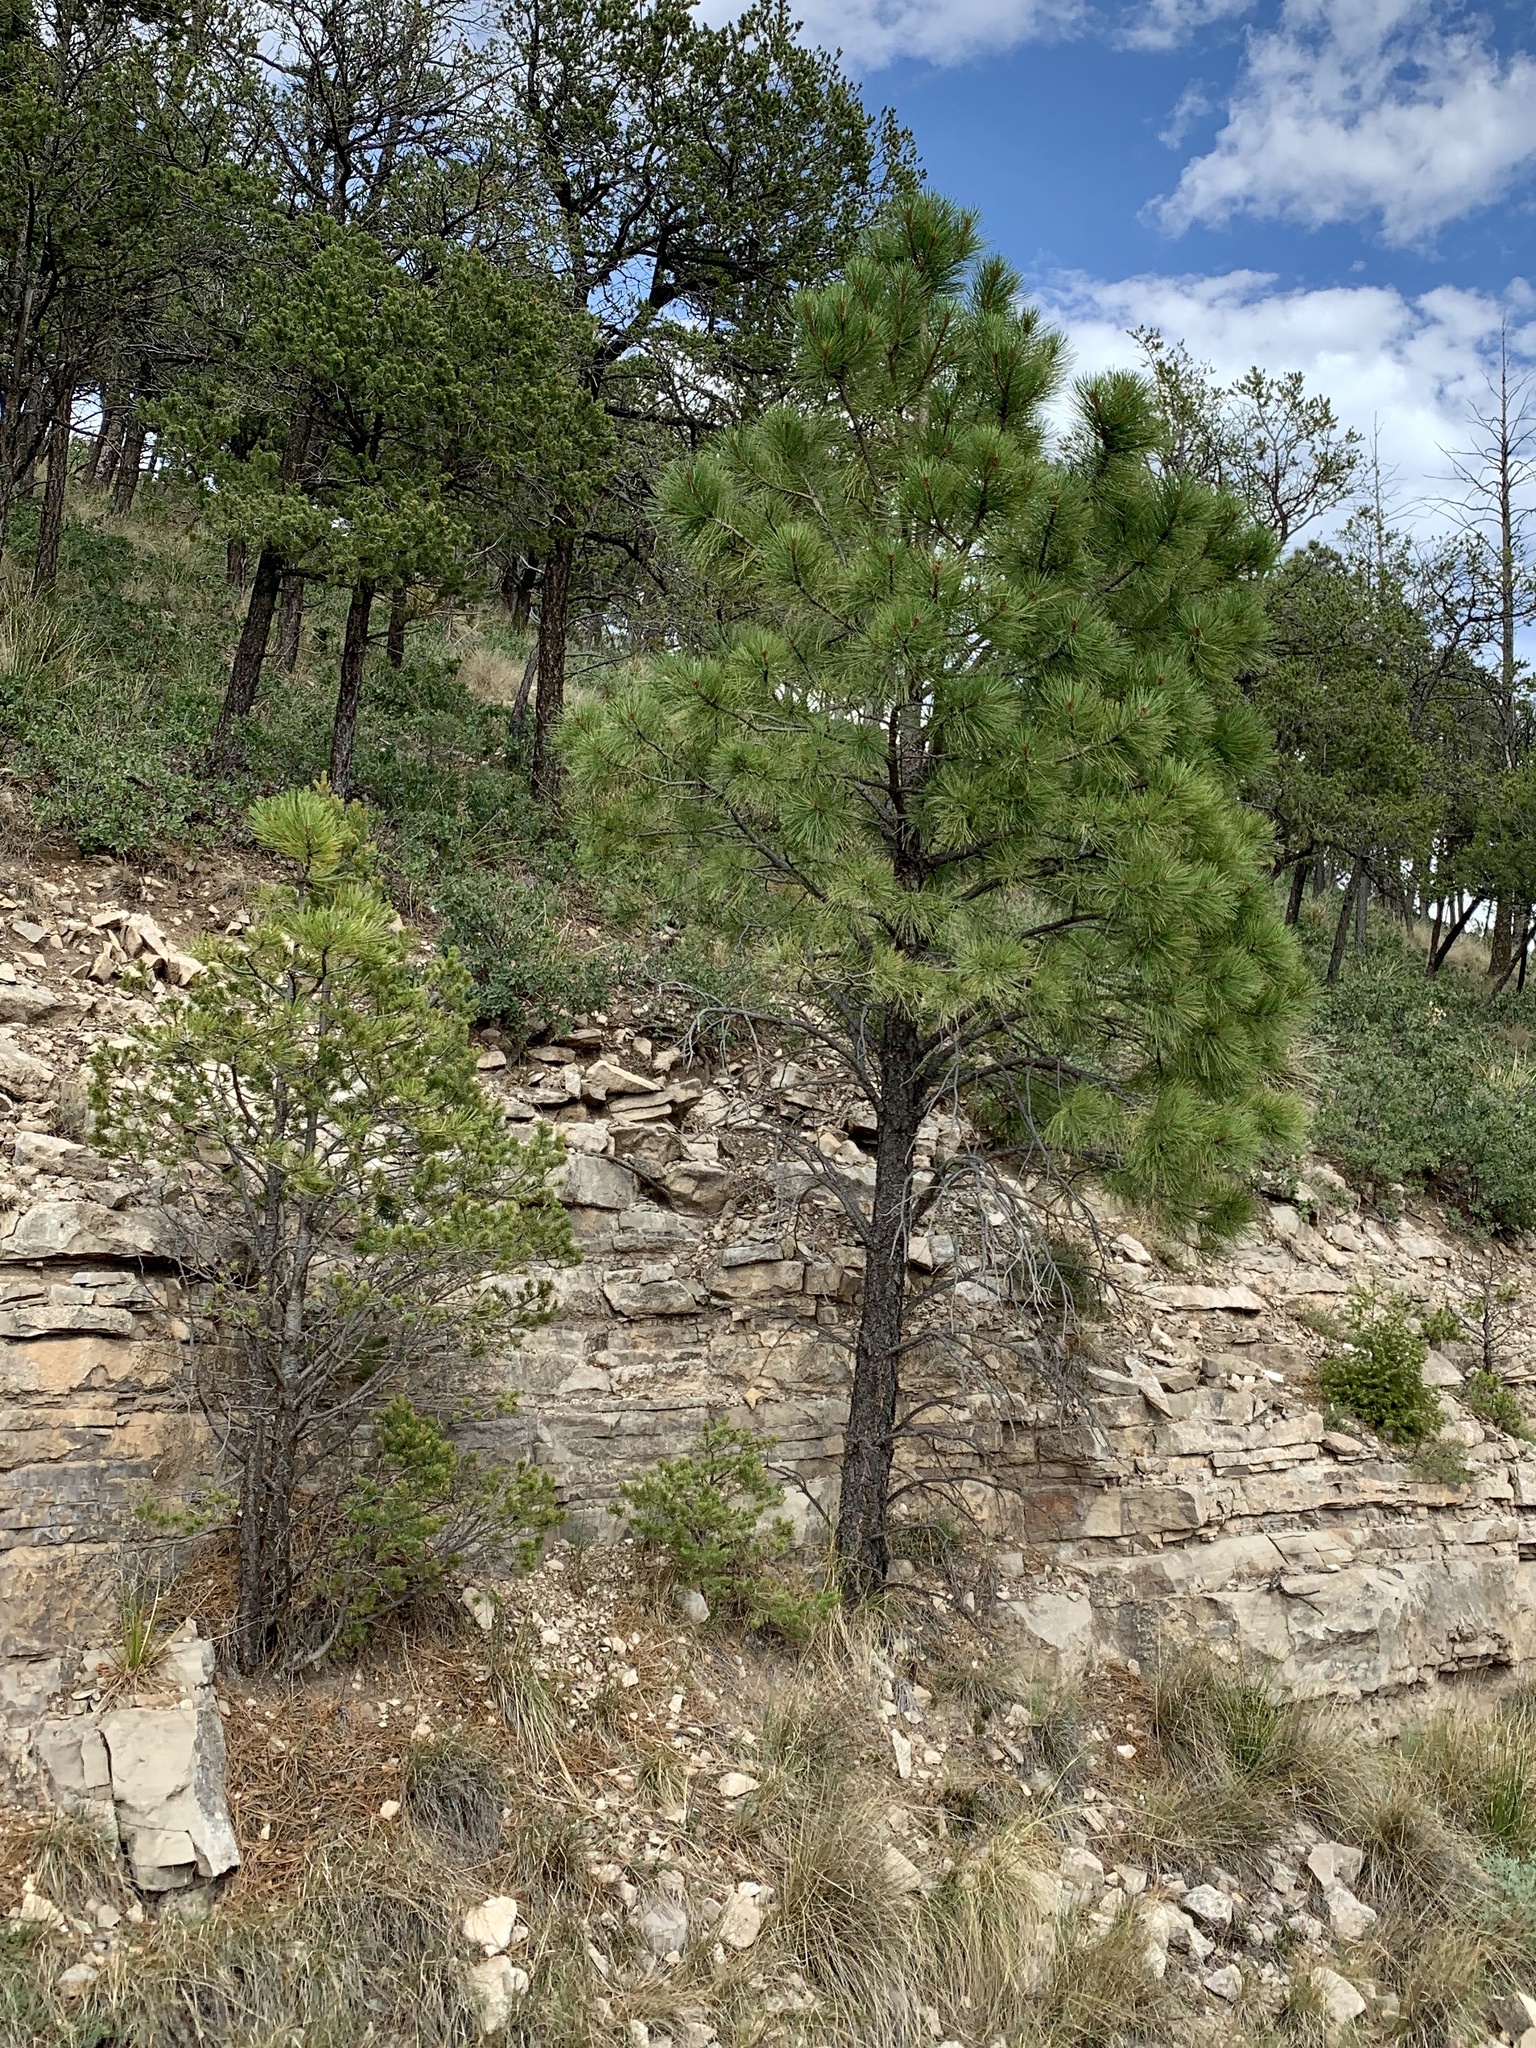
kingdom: Plantae
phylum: Tracheophyta
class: Pinopsida
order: Pinales
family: Pinaceae
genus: Pinus
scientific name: Pinus ponderosa
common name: Western yellow-pine
